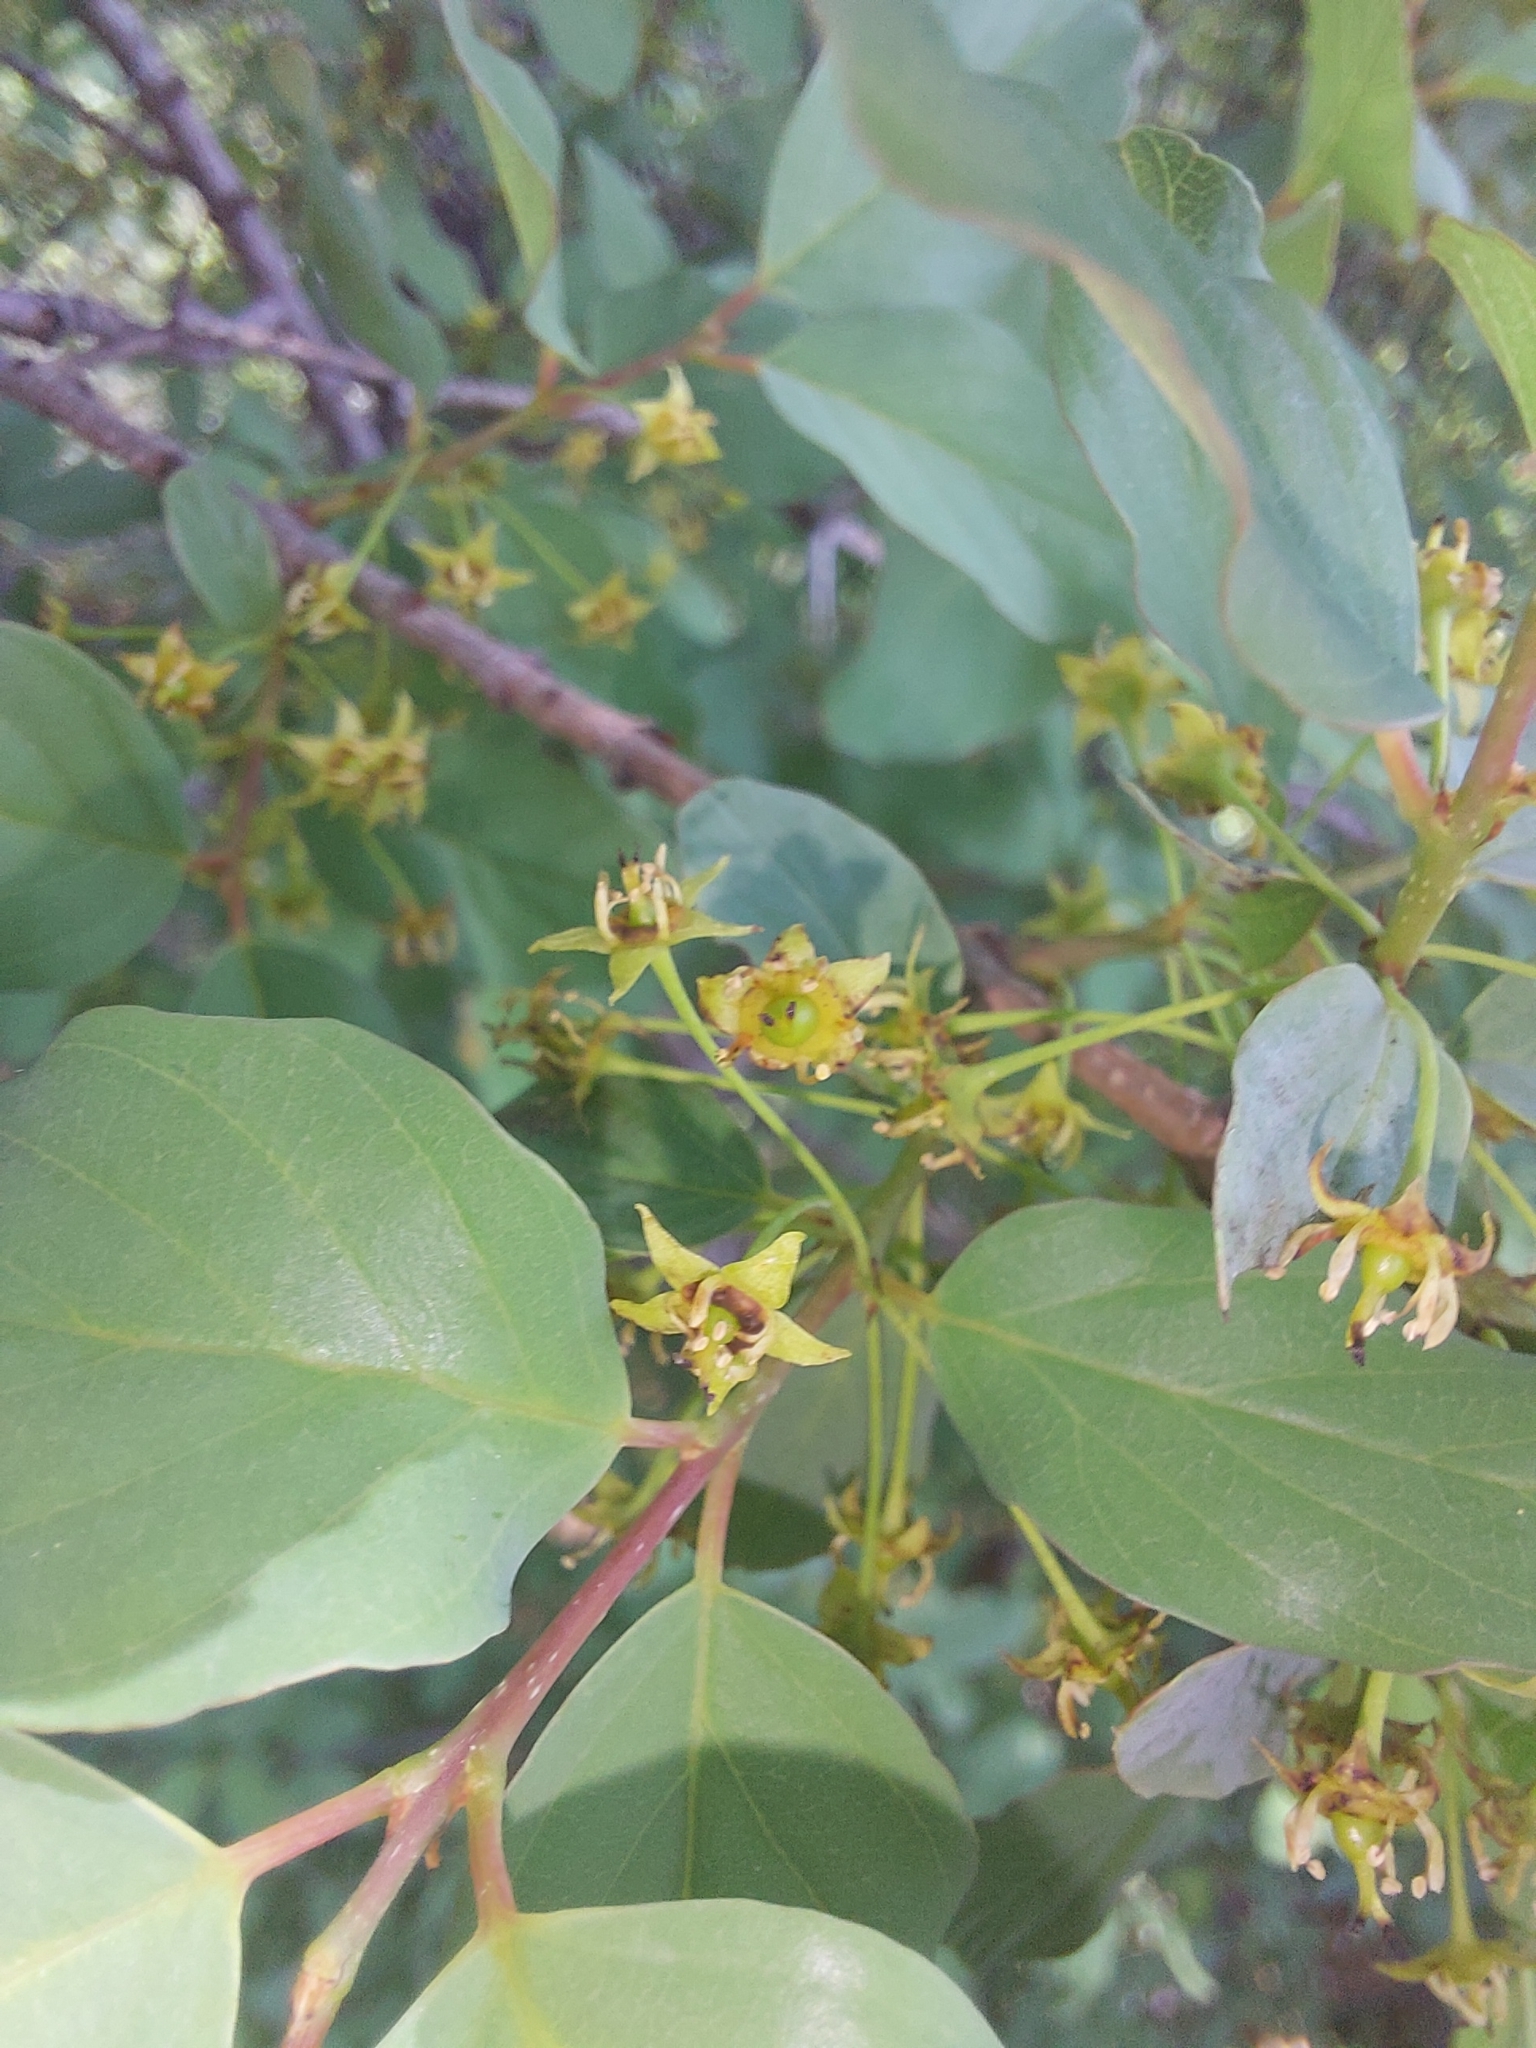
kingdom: Plantae
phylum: Tracheophyta
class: Magnoliopsida
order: Rosales
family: Rhamnaceae
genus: Phyllogeiton
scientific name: Phyllogeiton zeyheri
